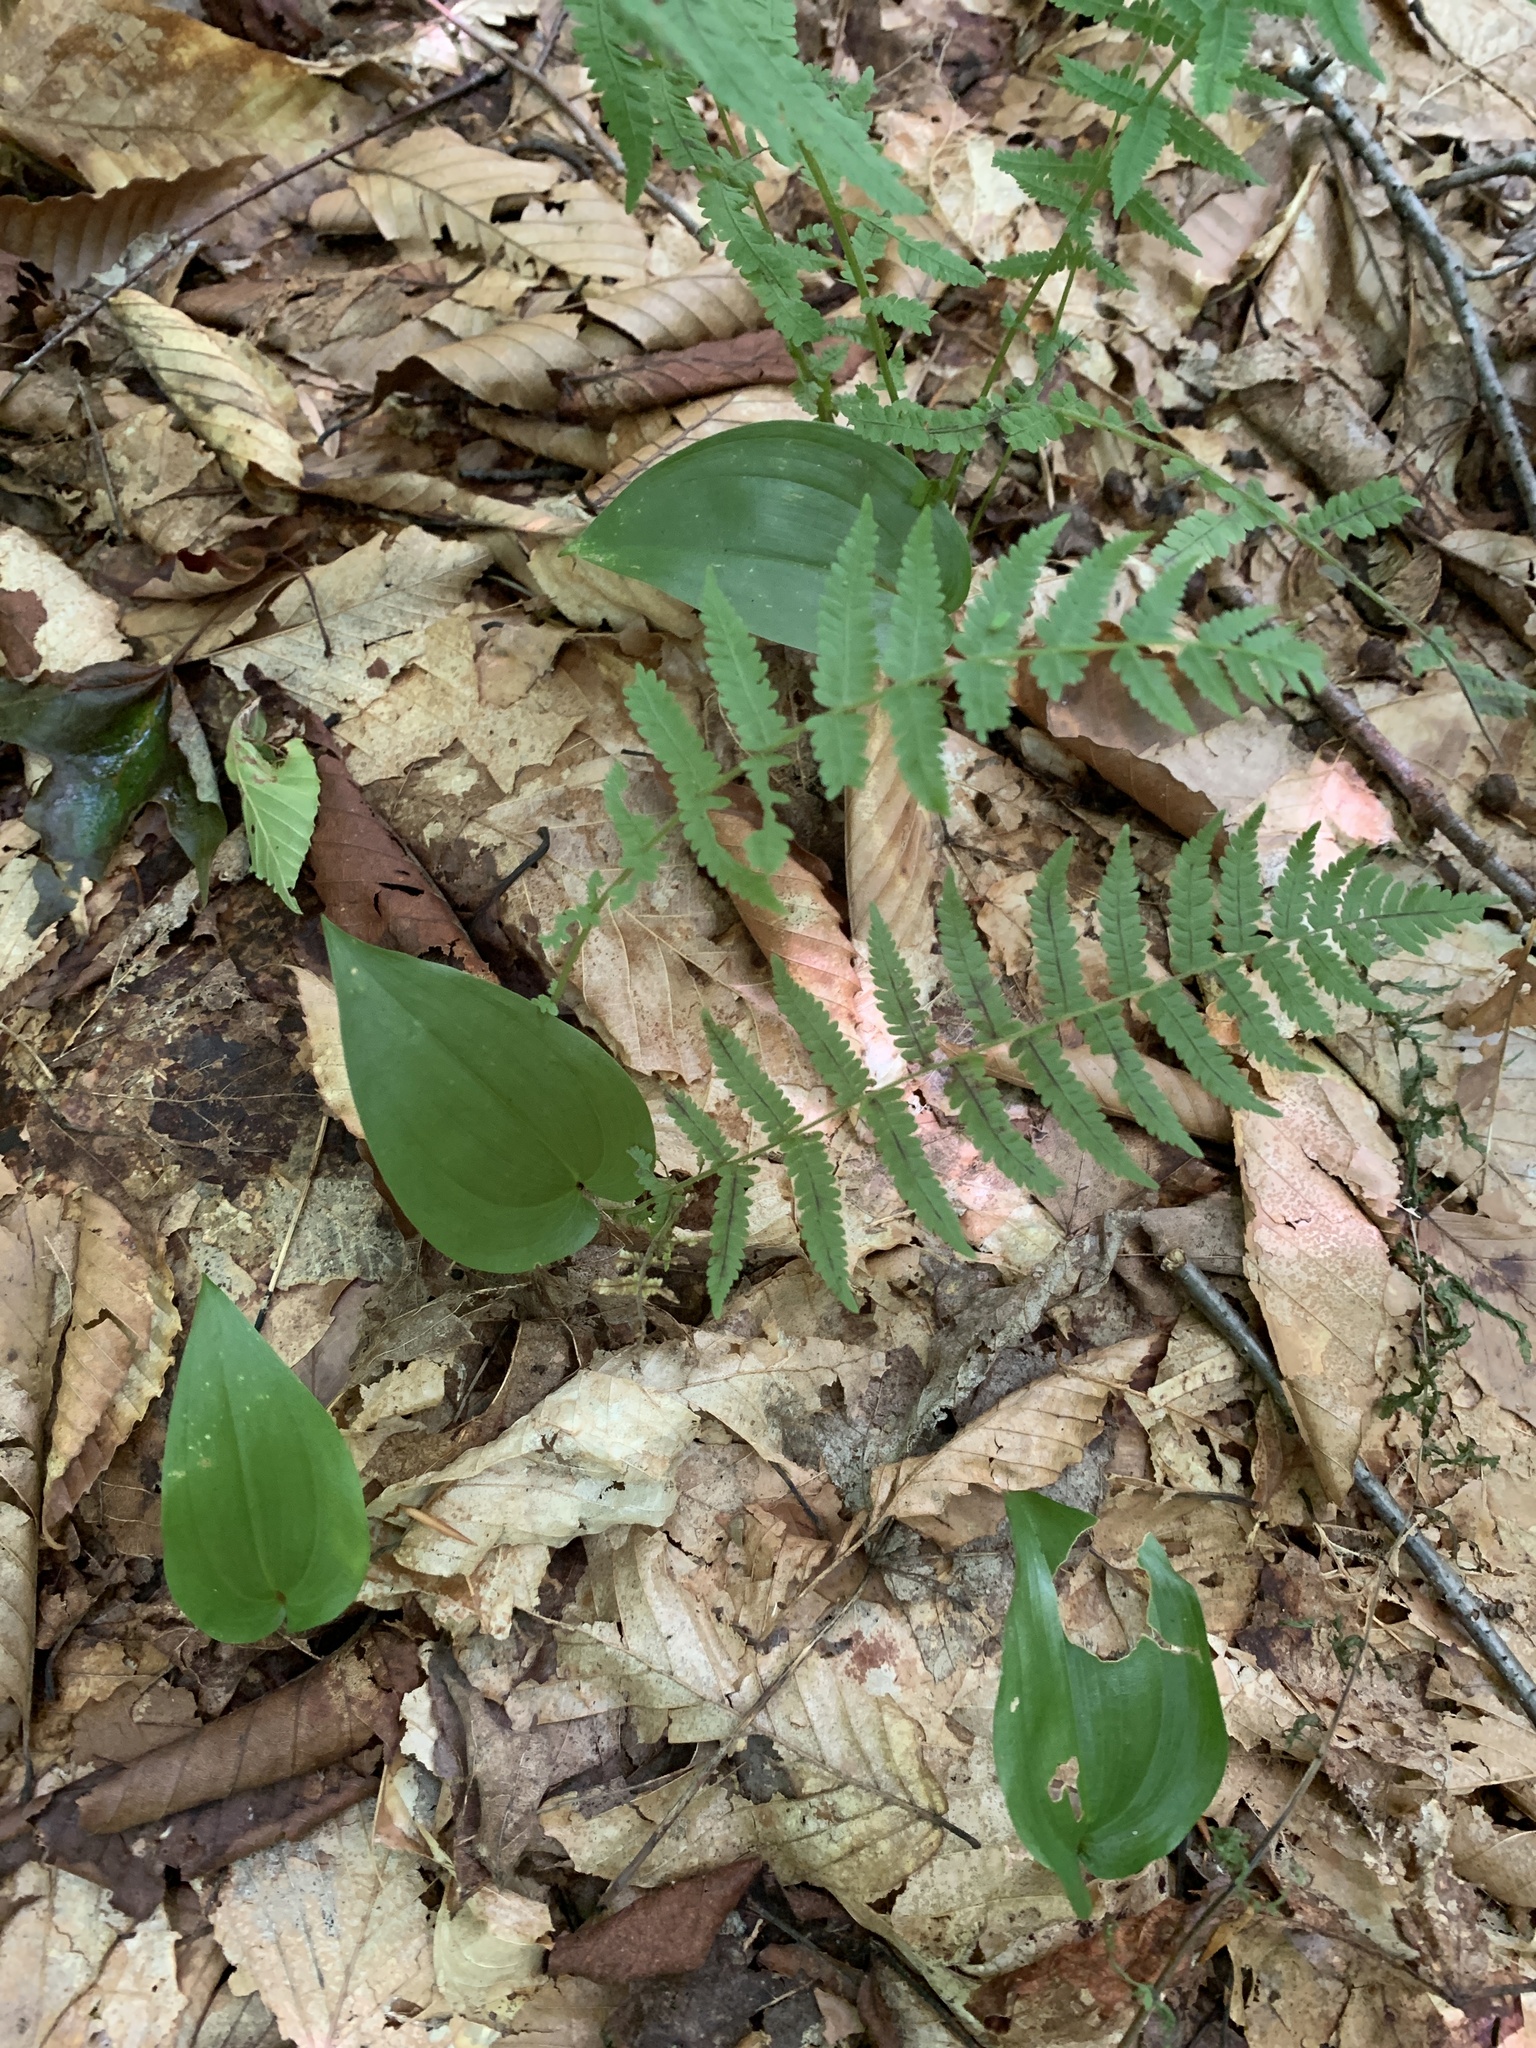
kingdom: Plantae
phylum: Tracheophyta
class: Liliopsida
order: Asparagales
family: Asparagaceae
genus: Maianthemum
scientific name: Maianthemum canadense
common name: False lily-of-the-valley
